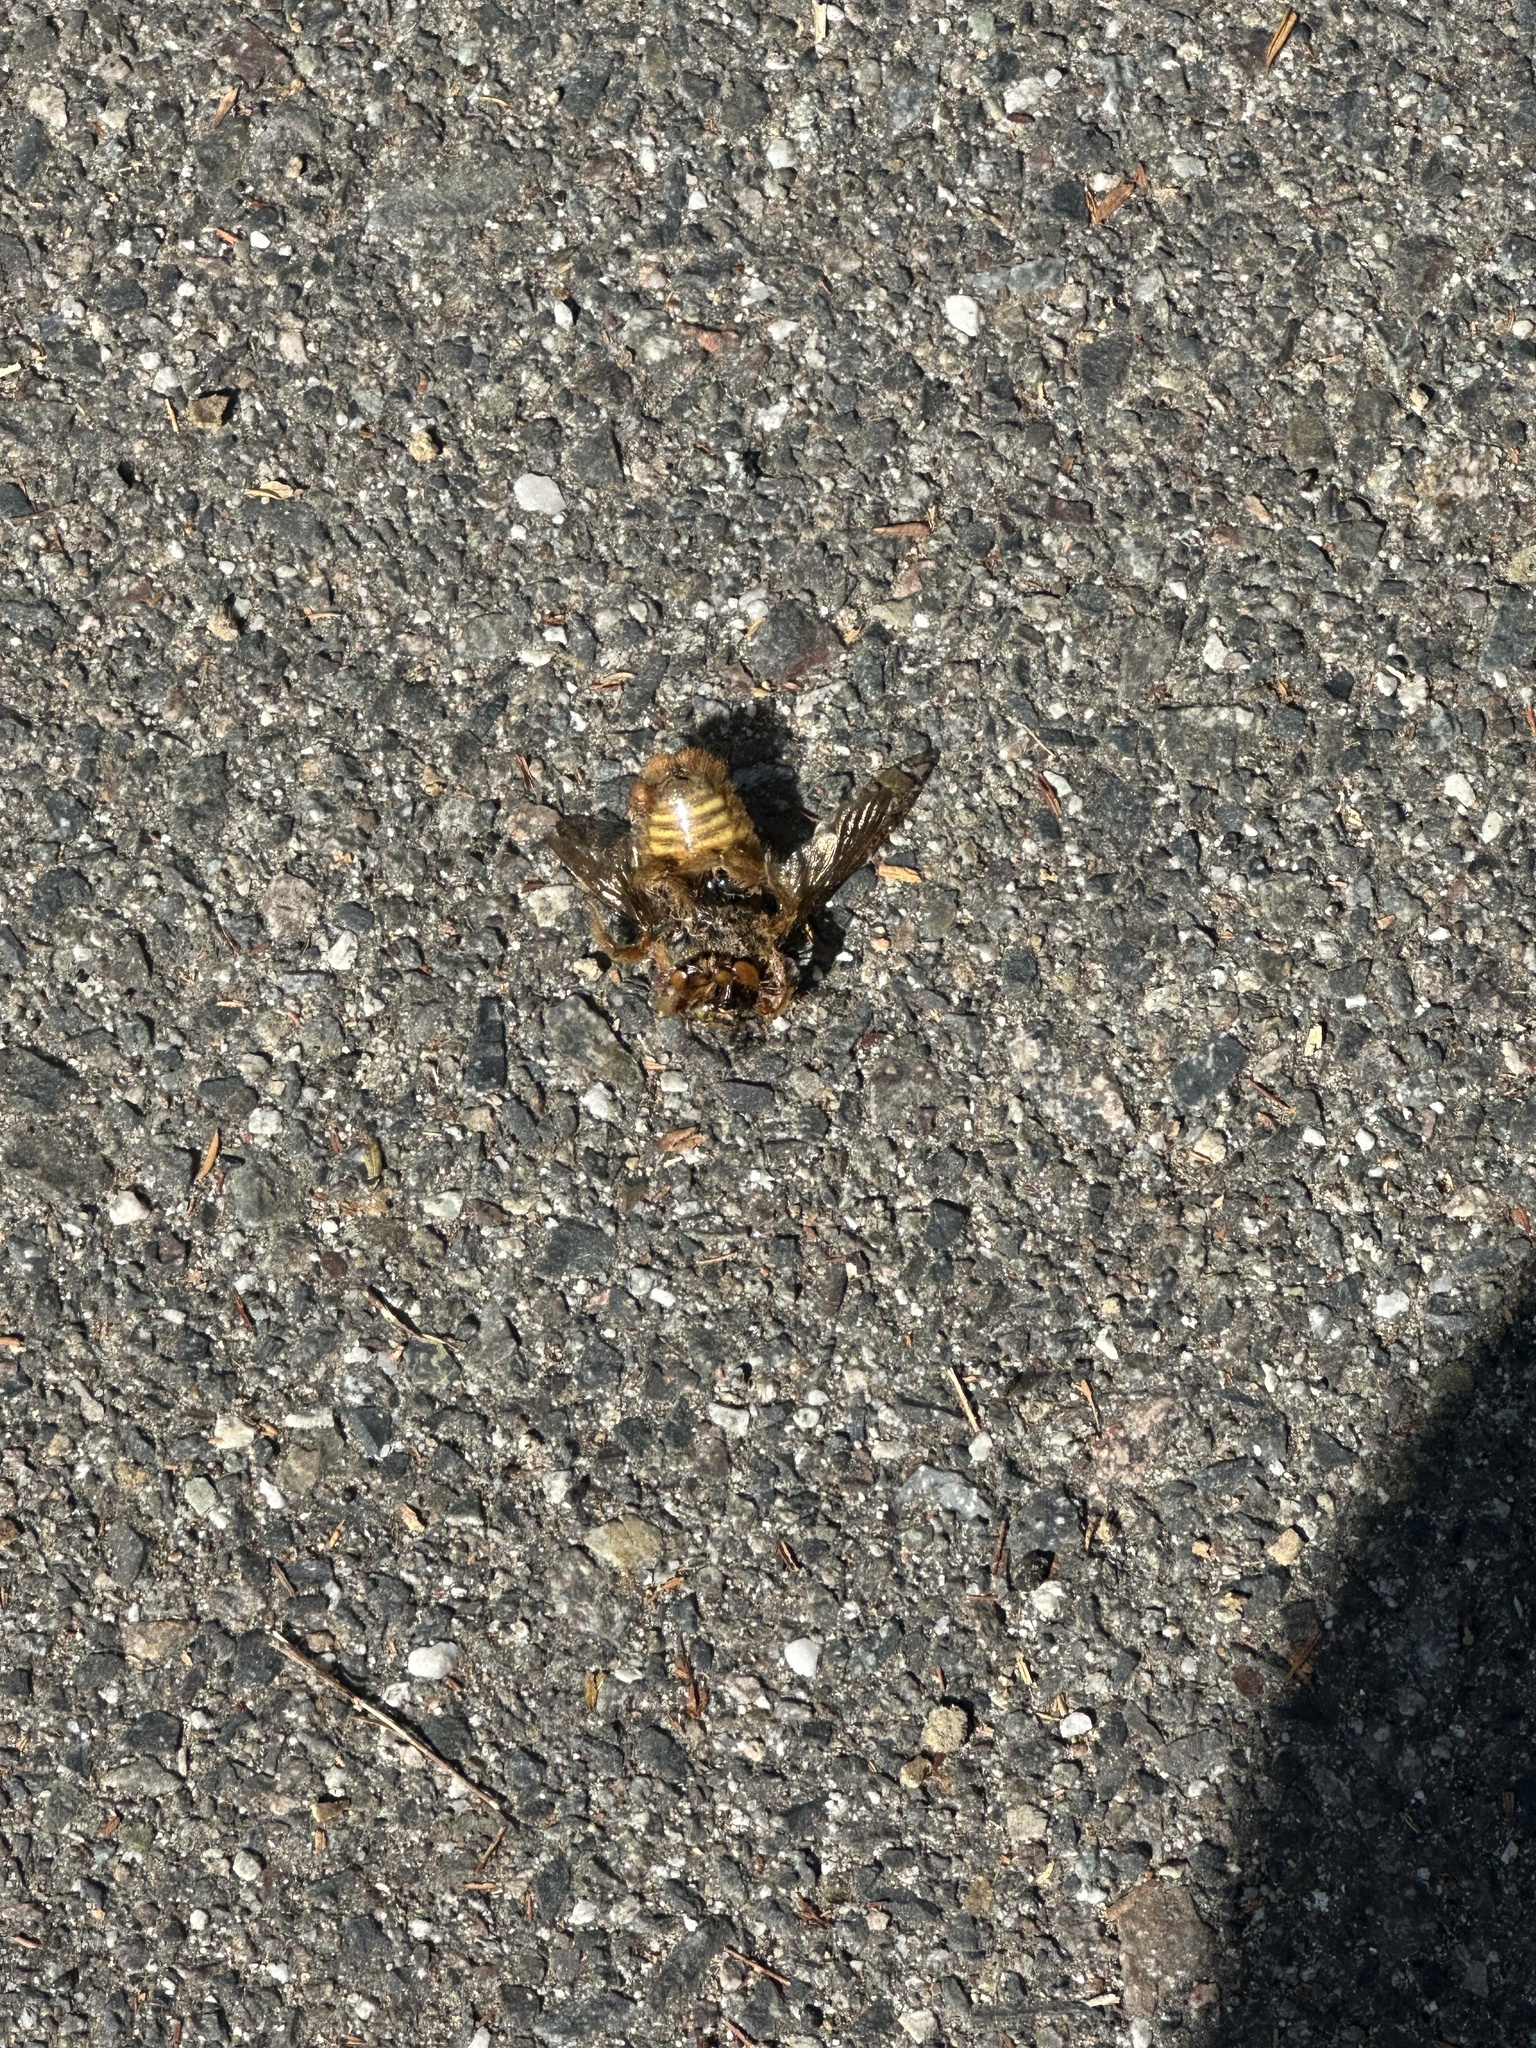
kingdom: Animalia
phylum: Arthropoda
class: Insecta
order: Hymenoptera
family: Apidae
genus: Xylocopa
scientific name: Xylocopa sonorina
